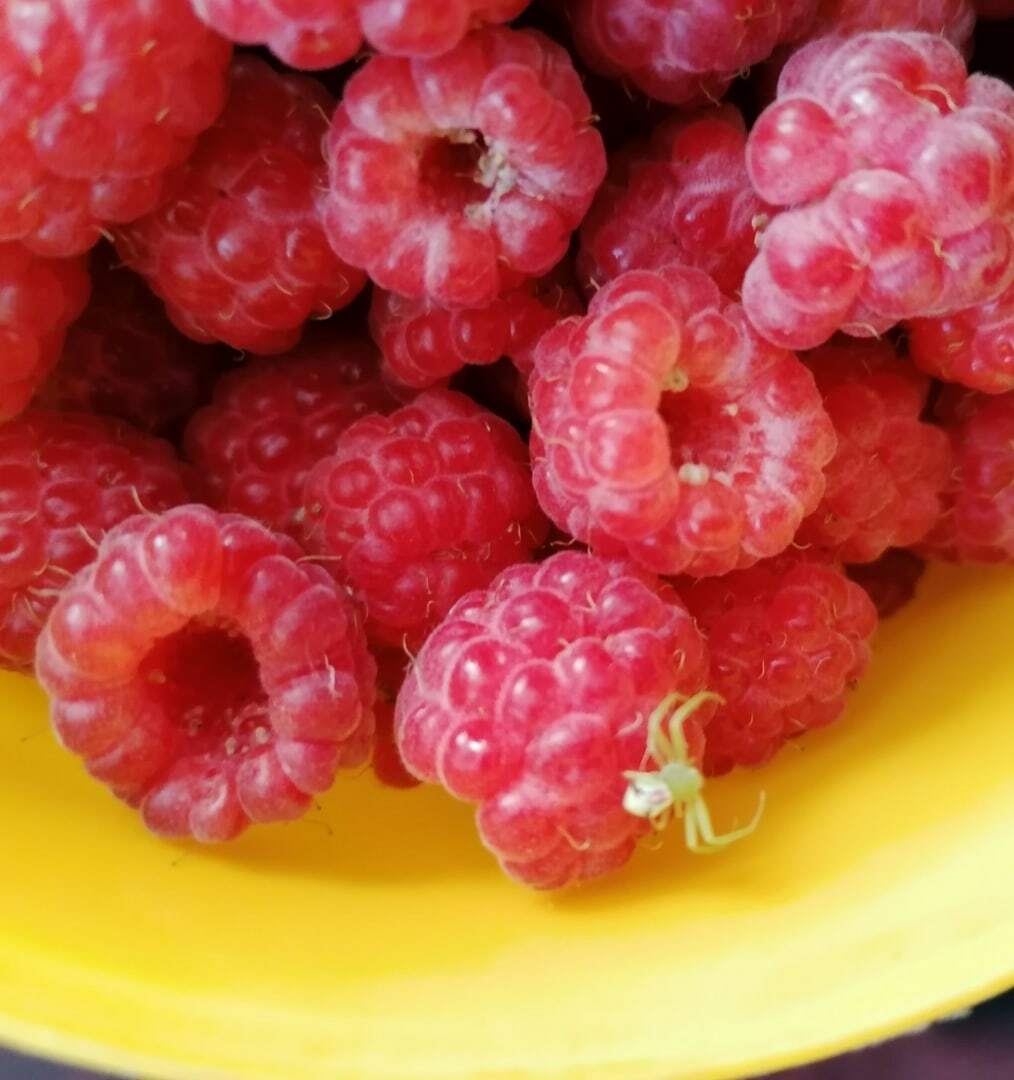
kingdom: Animalia
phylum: Arthropoda
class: Arachnida
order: Araneae
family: Thomisidae
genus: Ebrechtella
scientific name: Ebrechtella tricuspidata
